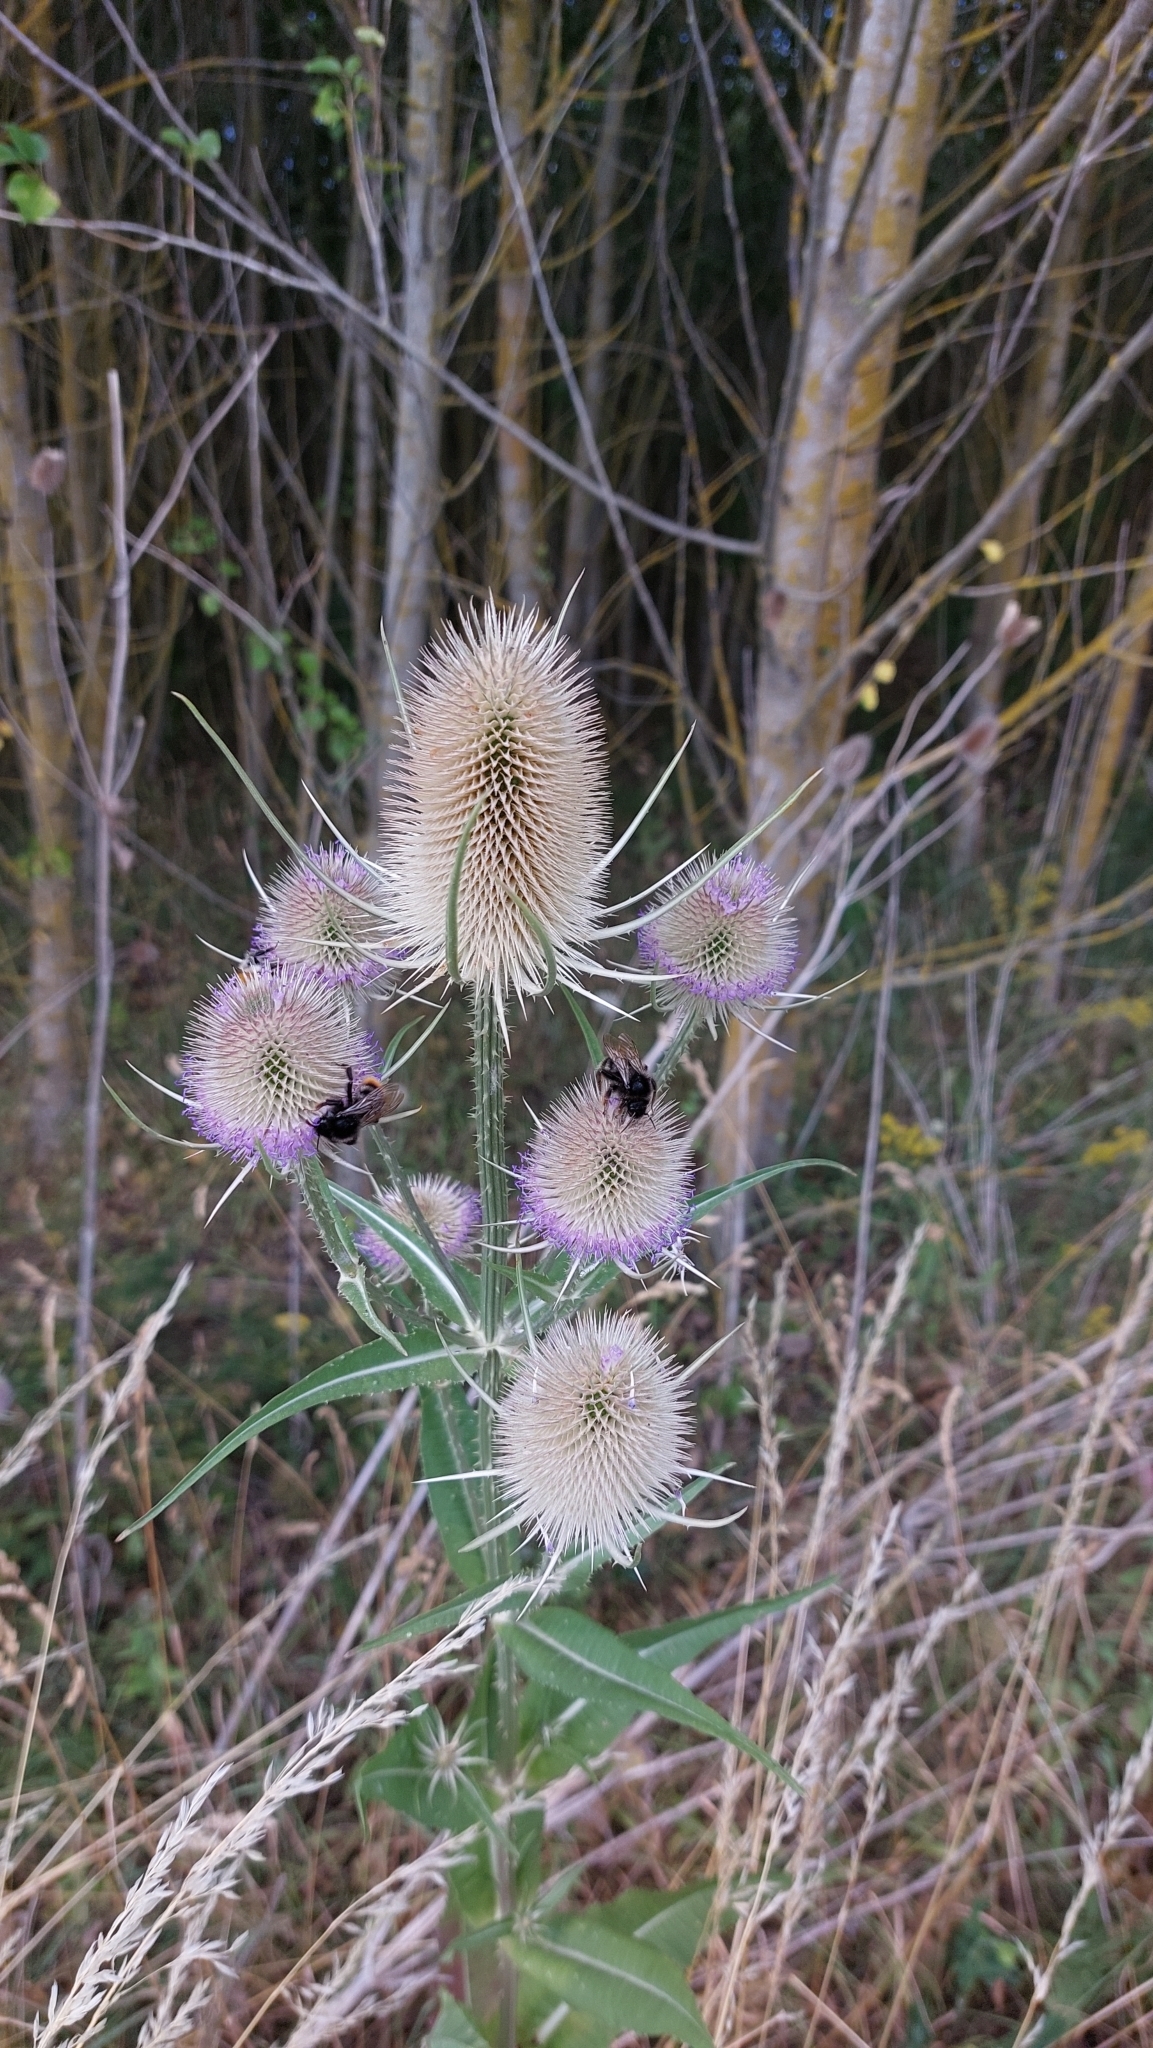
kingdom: Plantae
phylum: Tracheophyta
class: Magnoliopsida
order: Dipsacales
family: Caprifoliaceae
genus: Dipsacus
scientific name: Dipsacus fullonum
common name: Teasel
